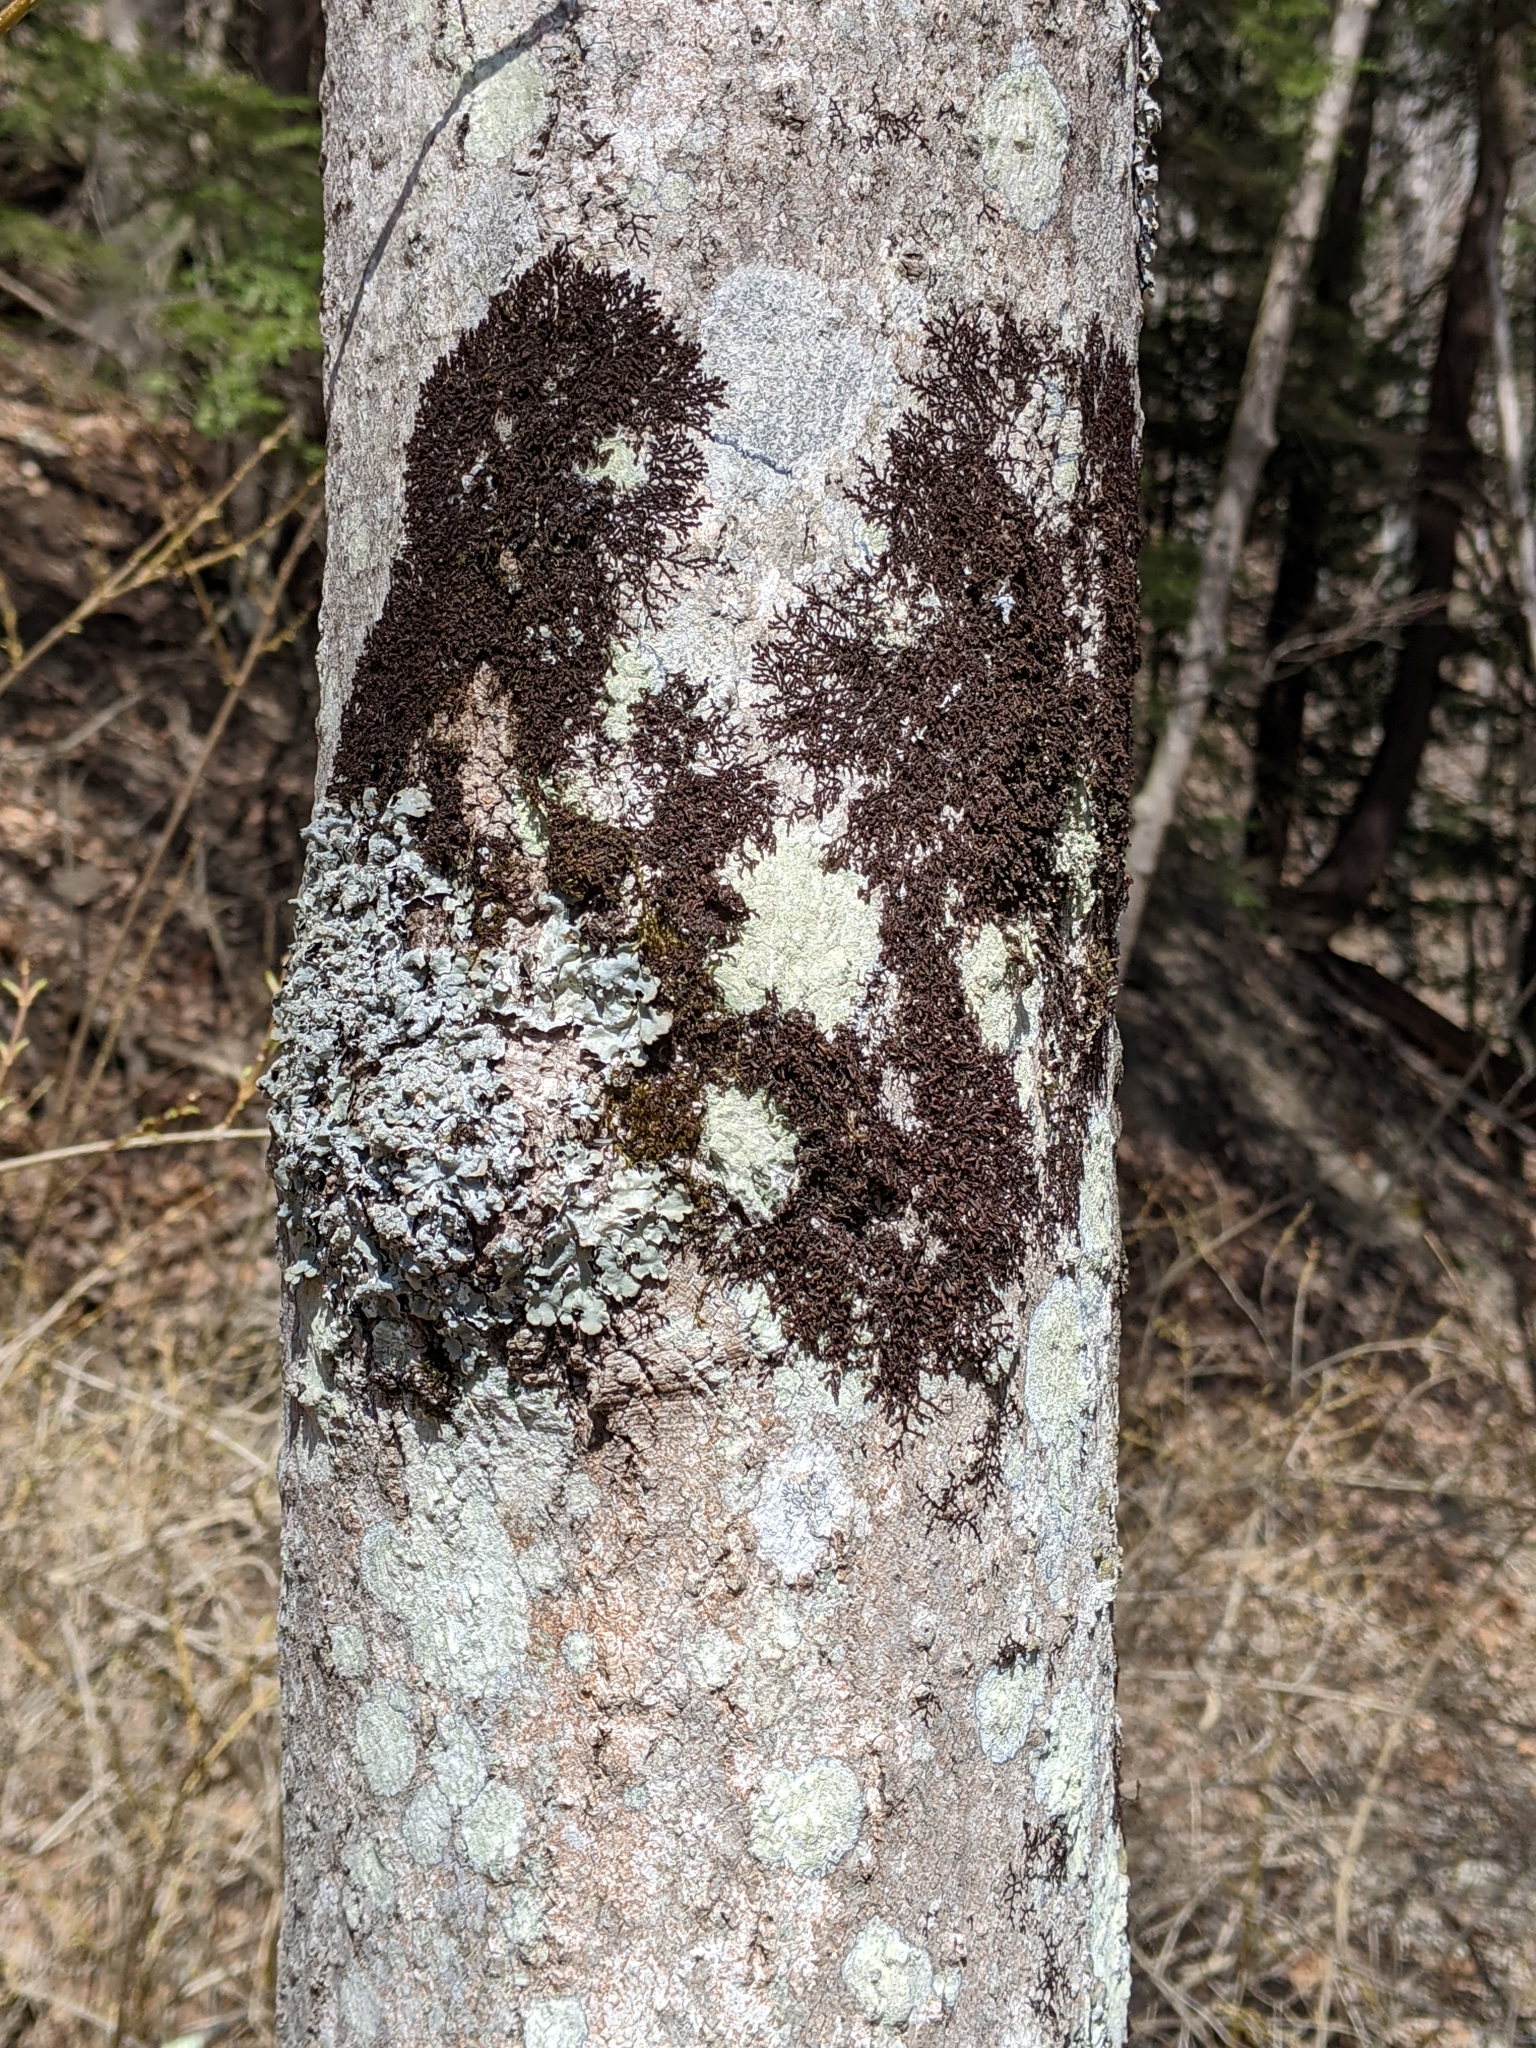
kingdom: Plantae
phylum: Marchantiophyta
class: Jungermanniopsida
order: Porellales
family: Frullaniaceae
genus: Frullania
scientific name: Frullania eboracensis
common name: New york scalewort
